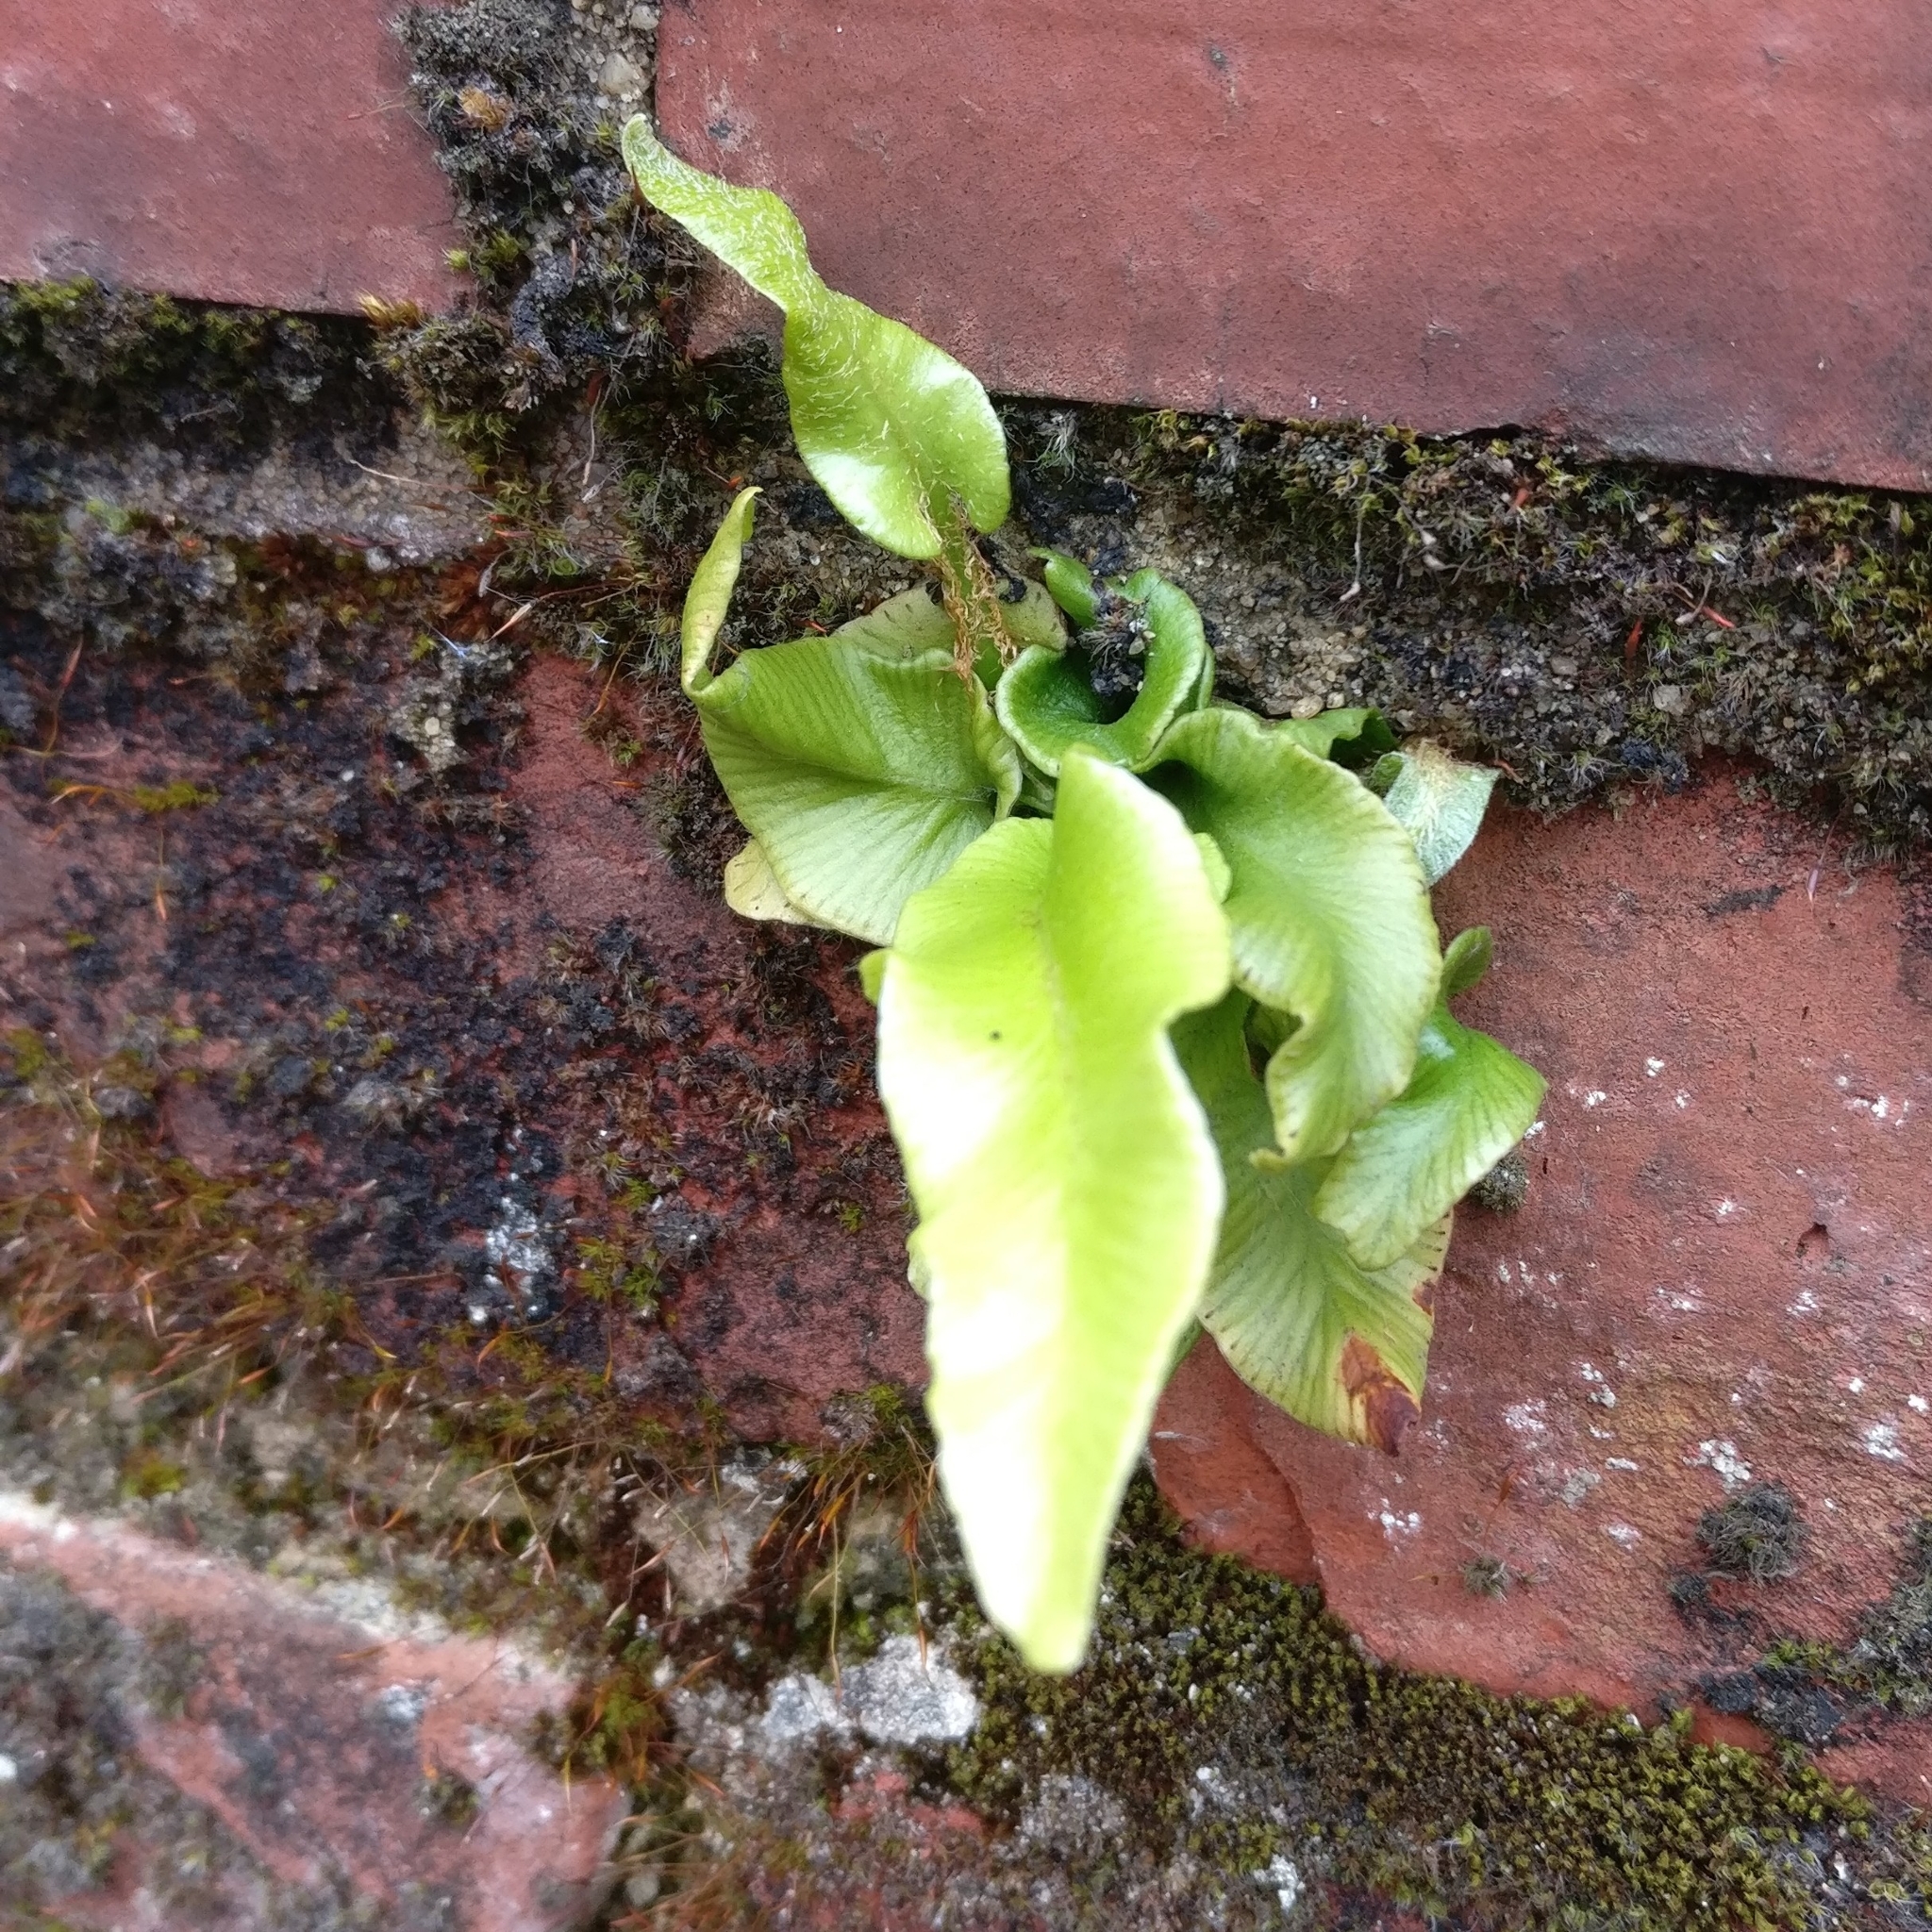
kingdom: Plantae
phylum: Tracheophyta
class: Polypodiopsida
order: Polypodiales
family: Aspleniaceae
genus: Asplenium
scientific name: Asplenium scolopendrium
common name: Hart's-tongue fern
